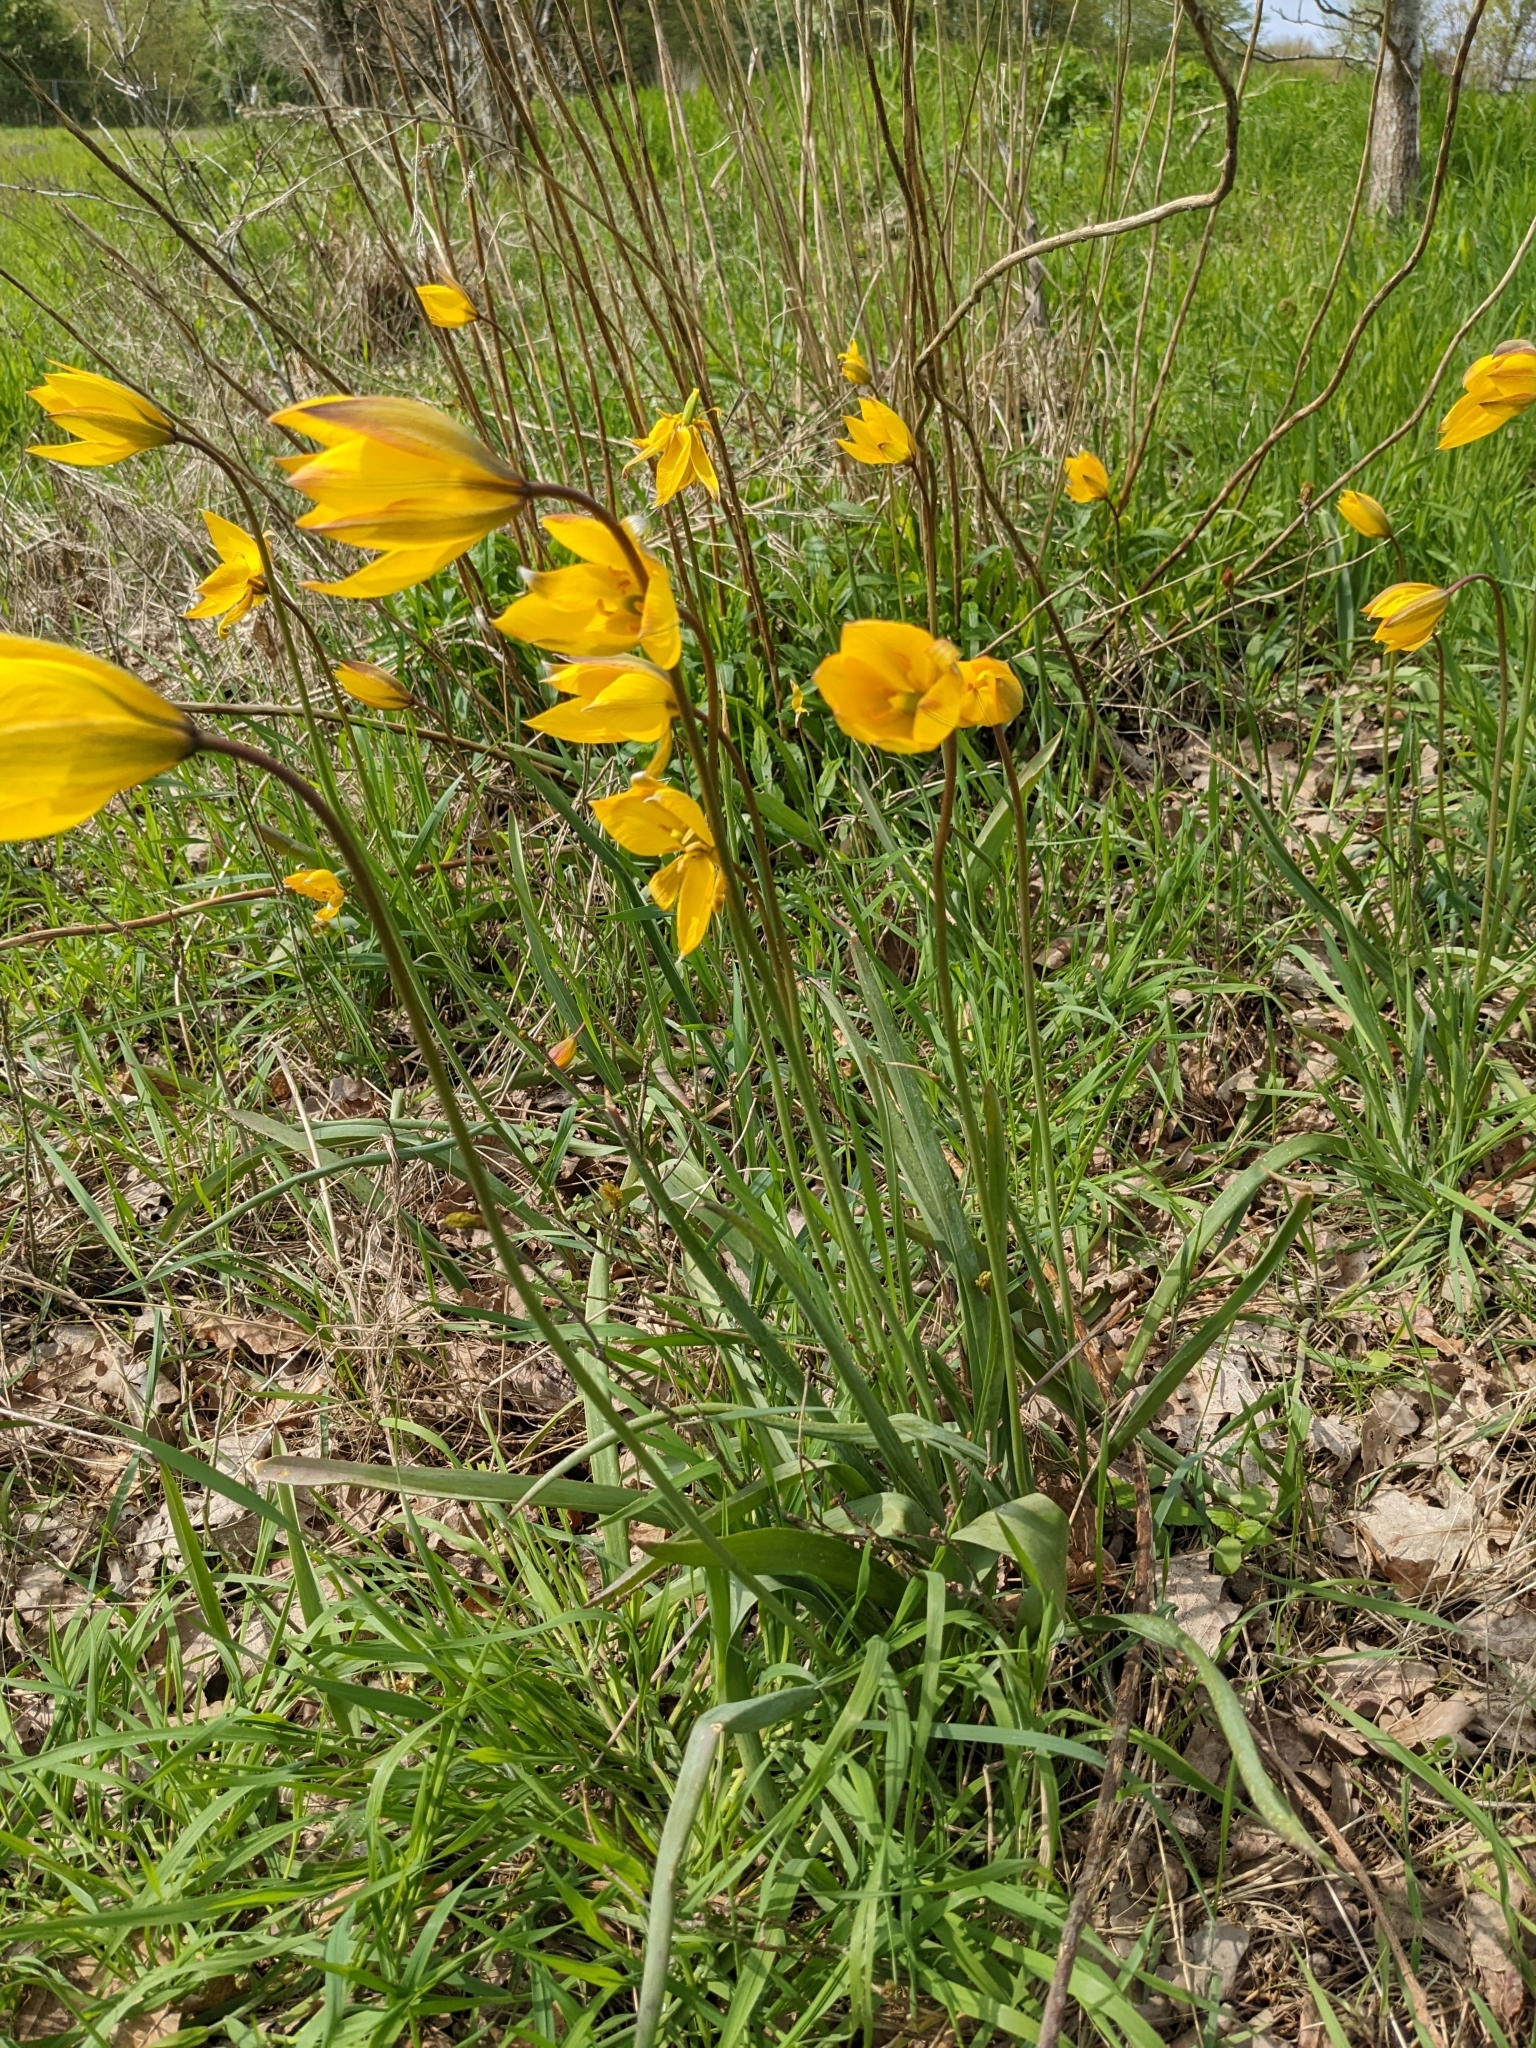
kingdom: Plantae
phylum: Tracheophyta
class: Liliopsida
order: Liliales
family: Liliaceae
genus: Tulipa
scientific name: Tulipa sylvestris
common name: Wild tulip
